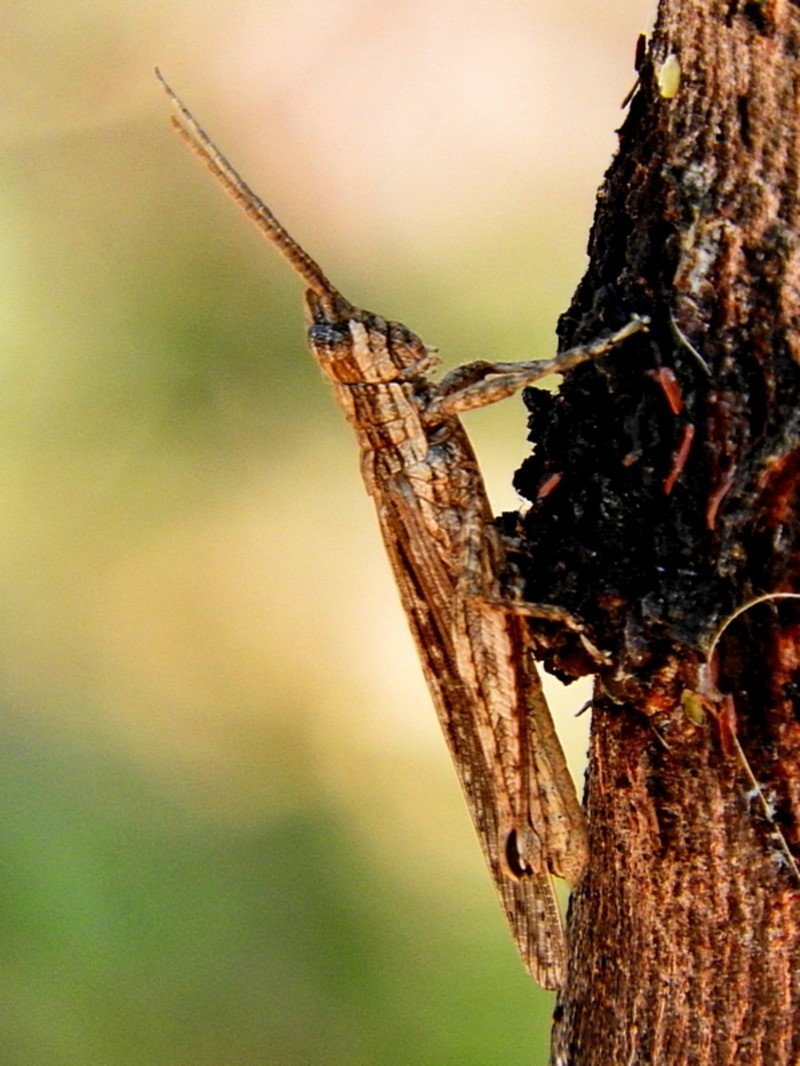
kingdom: Animalia
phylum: Arthropoda
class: Insecta
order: Orthoptera
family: Acrididae
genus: Coryphistes
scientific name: Coryphistes ruricola
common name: Bark-mimicking grasshopper
